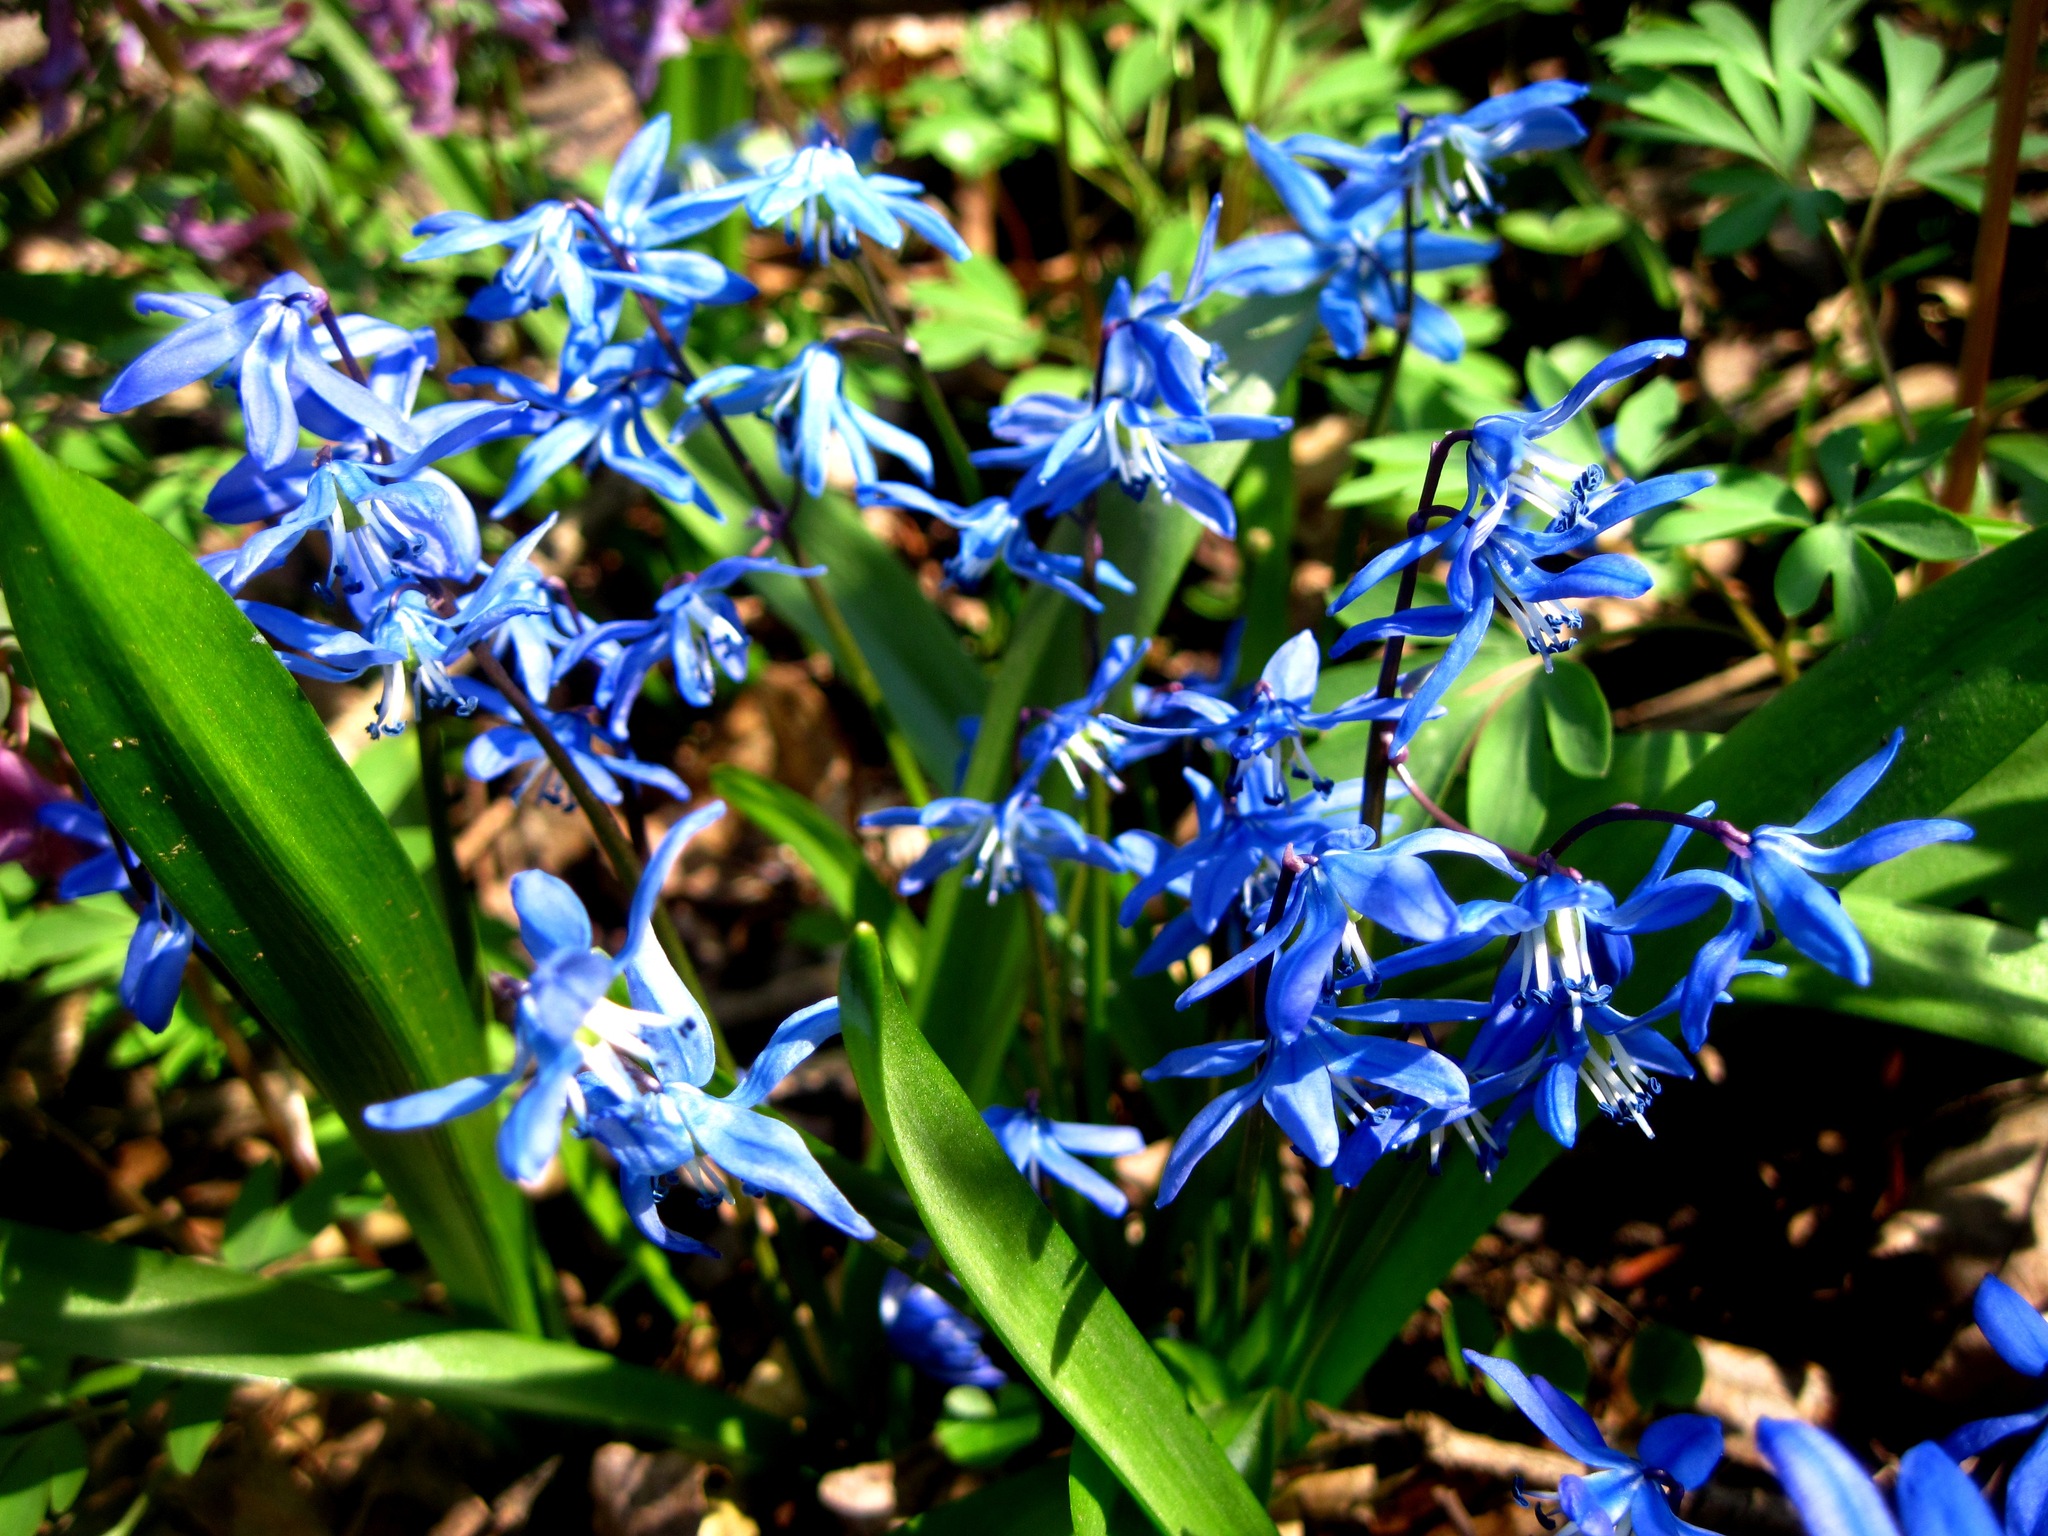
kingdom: Plantae
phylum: Tracheophyta
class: Liliopsida
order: Asparagales
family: Asparagaceae
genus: Scilla
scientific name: Scilla siberica
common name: Siberian squill
